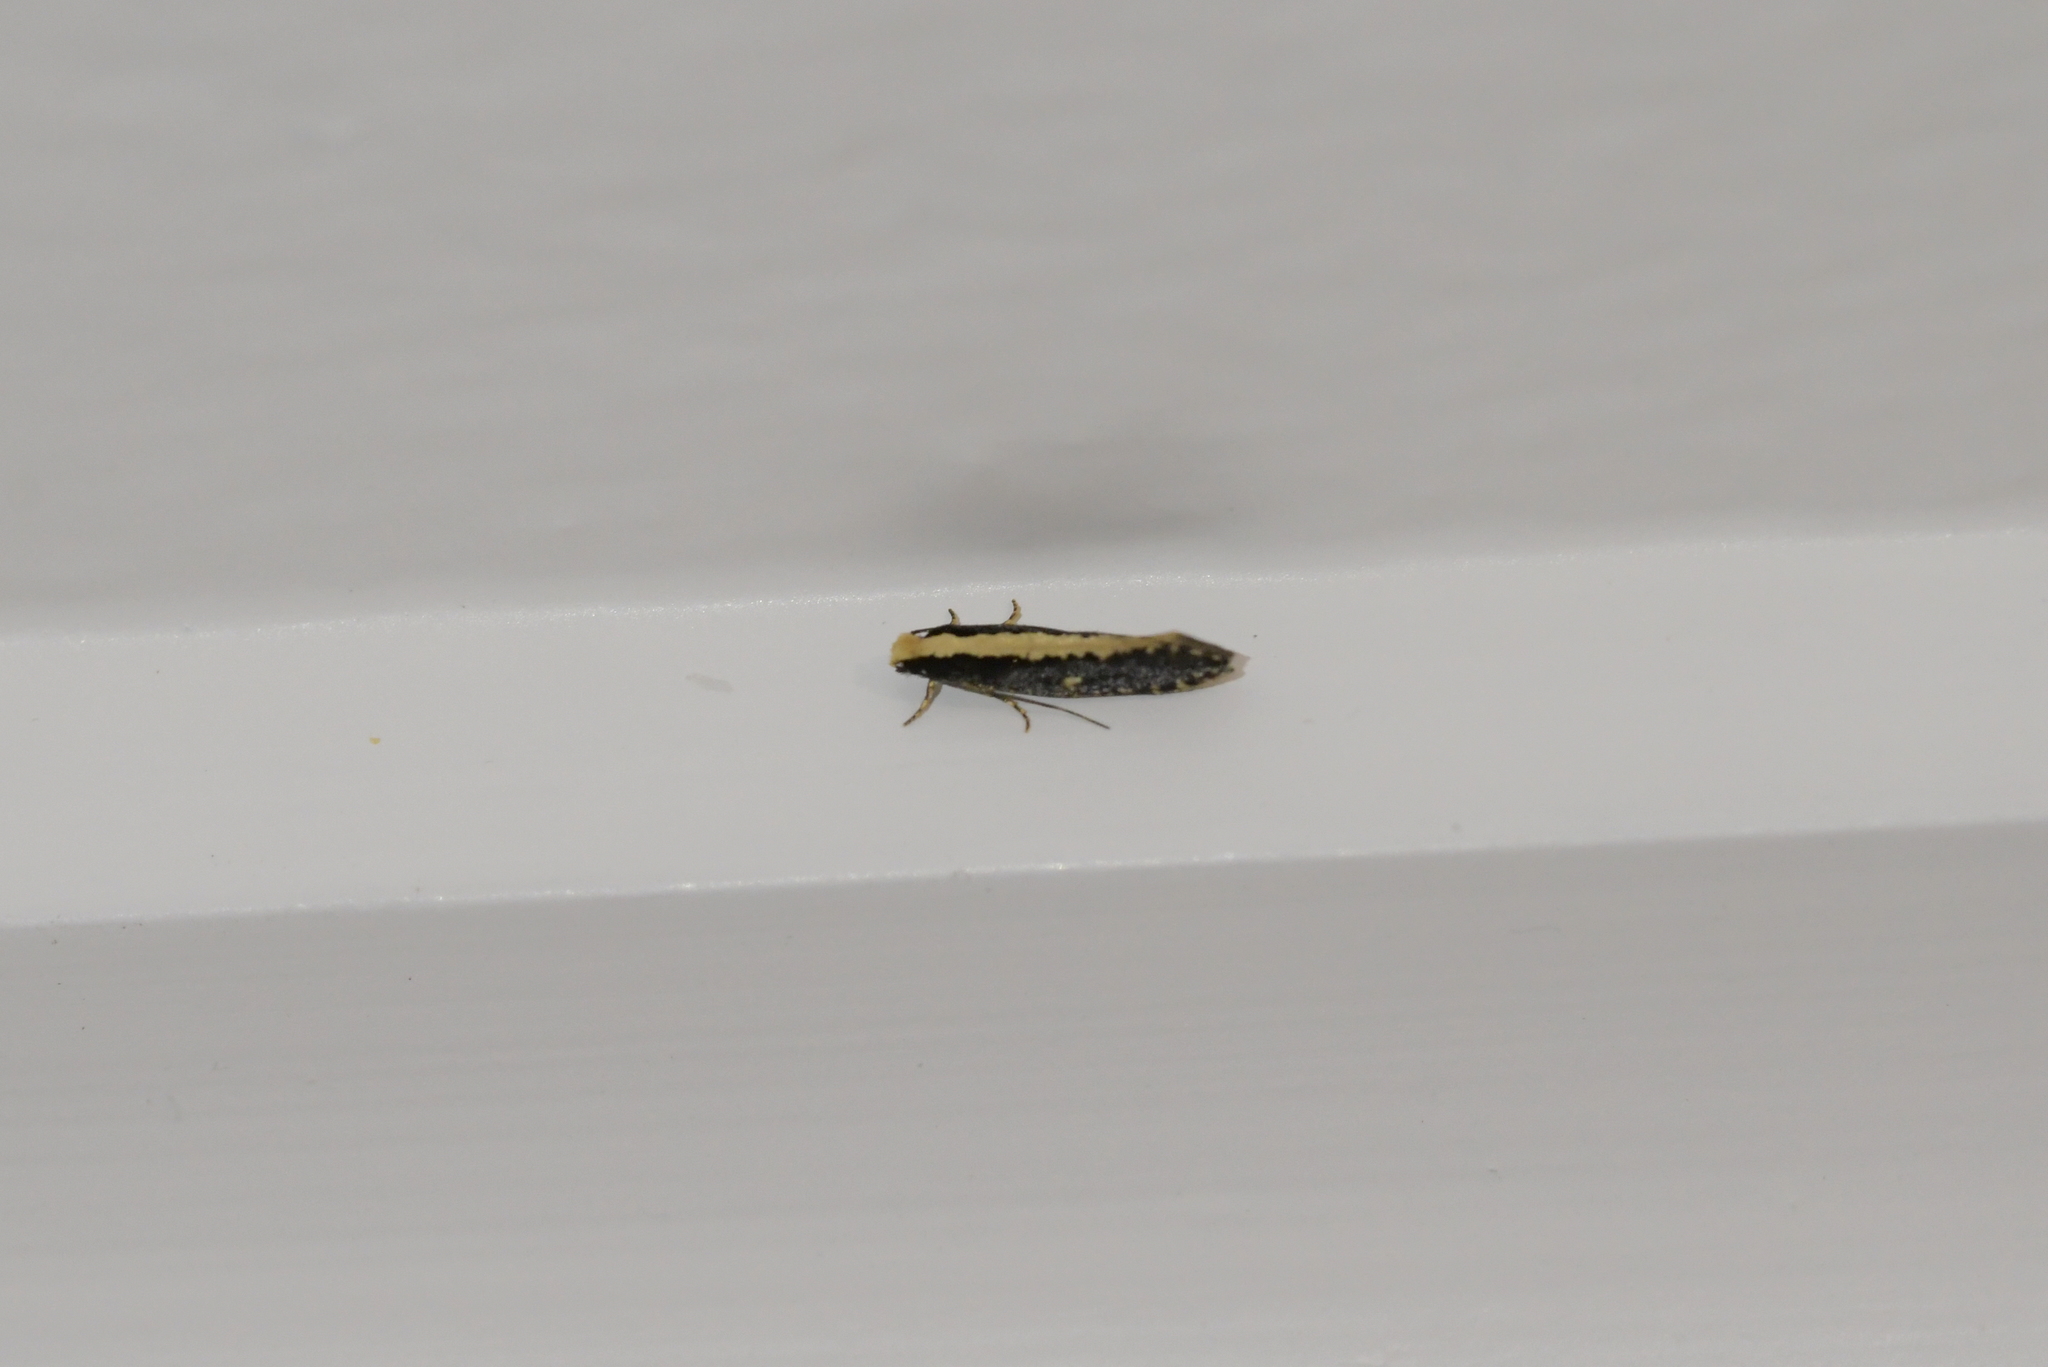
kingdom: Animalia
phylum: Arthropoda
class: Insecta
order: Lepidoptera
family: Tineidae
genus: Monopis
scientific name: Monopis ethelella
